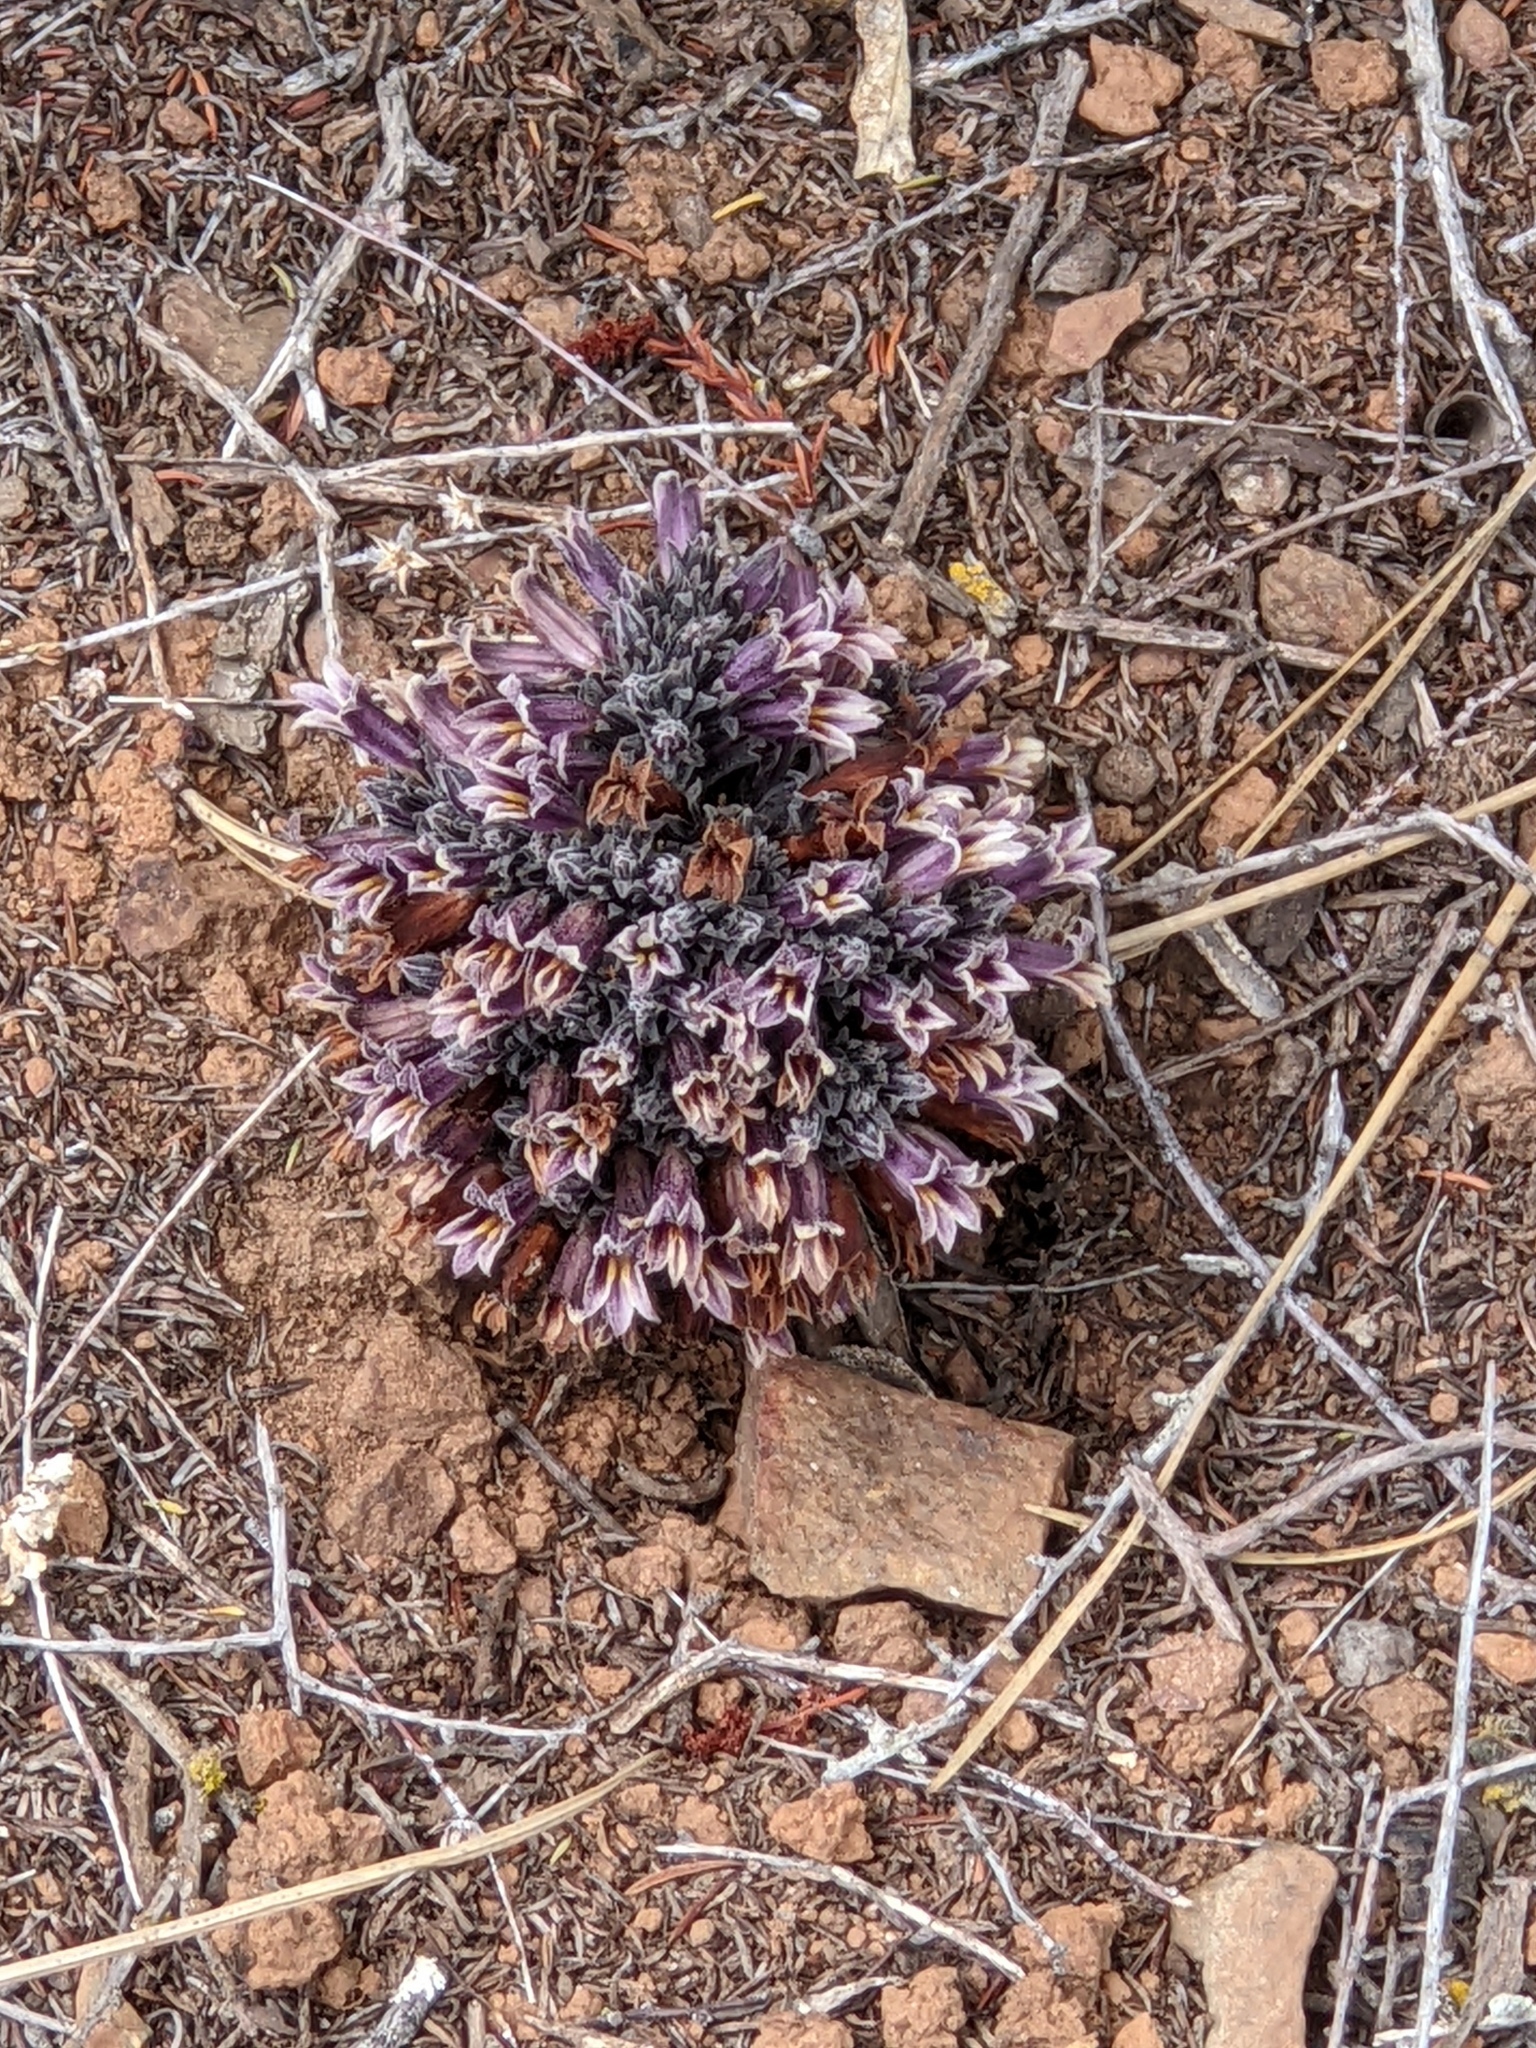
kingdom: Plantae
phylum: Tracheophyta
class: Magnoliopsida
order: Lamiales
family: Orobanchaceae
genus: Aphyllon
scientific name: Aphyllon tuberosum
